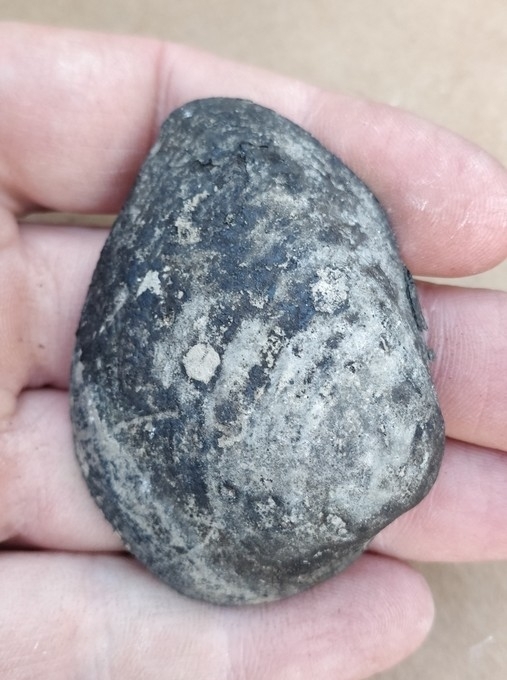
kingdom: Animalia
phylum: Mollusca
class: Bivalvia
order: Unionida
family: Unionidae
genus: Fusconaia
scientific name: Fusconaia flava
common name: Wabash pigtoe
